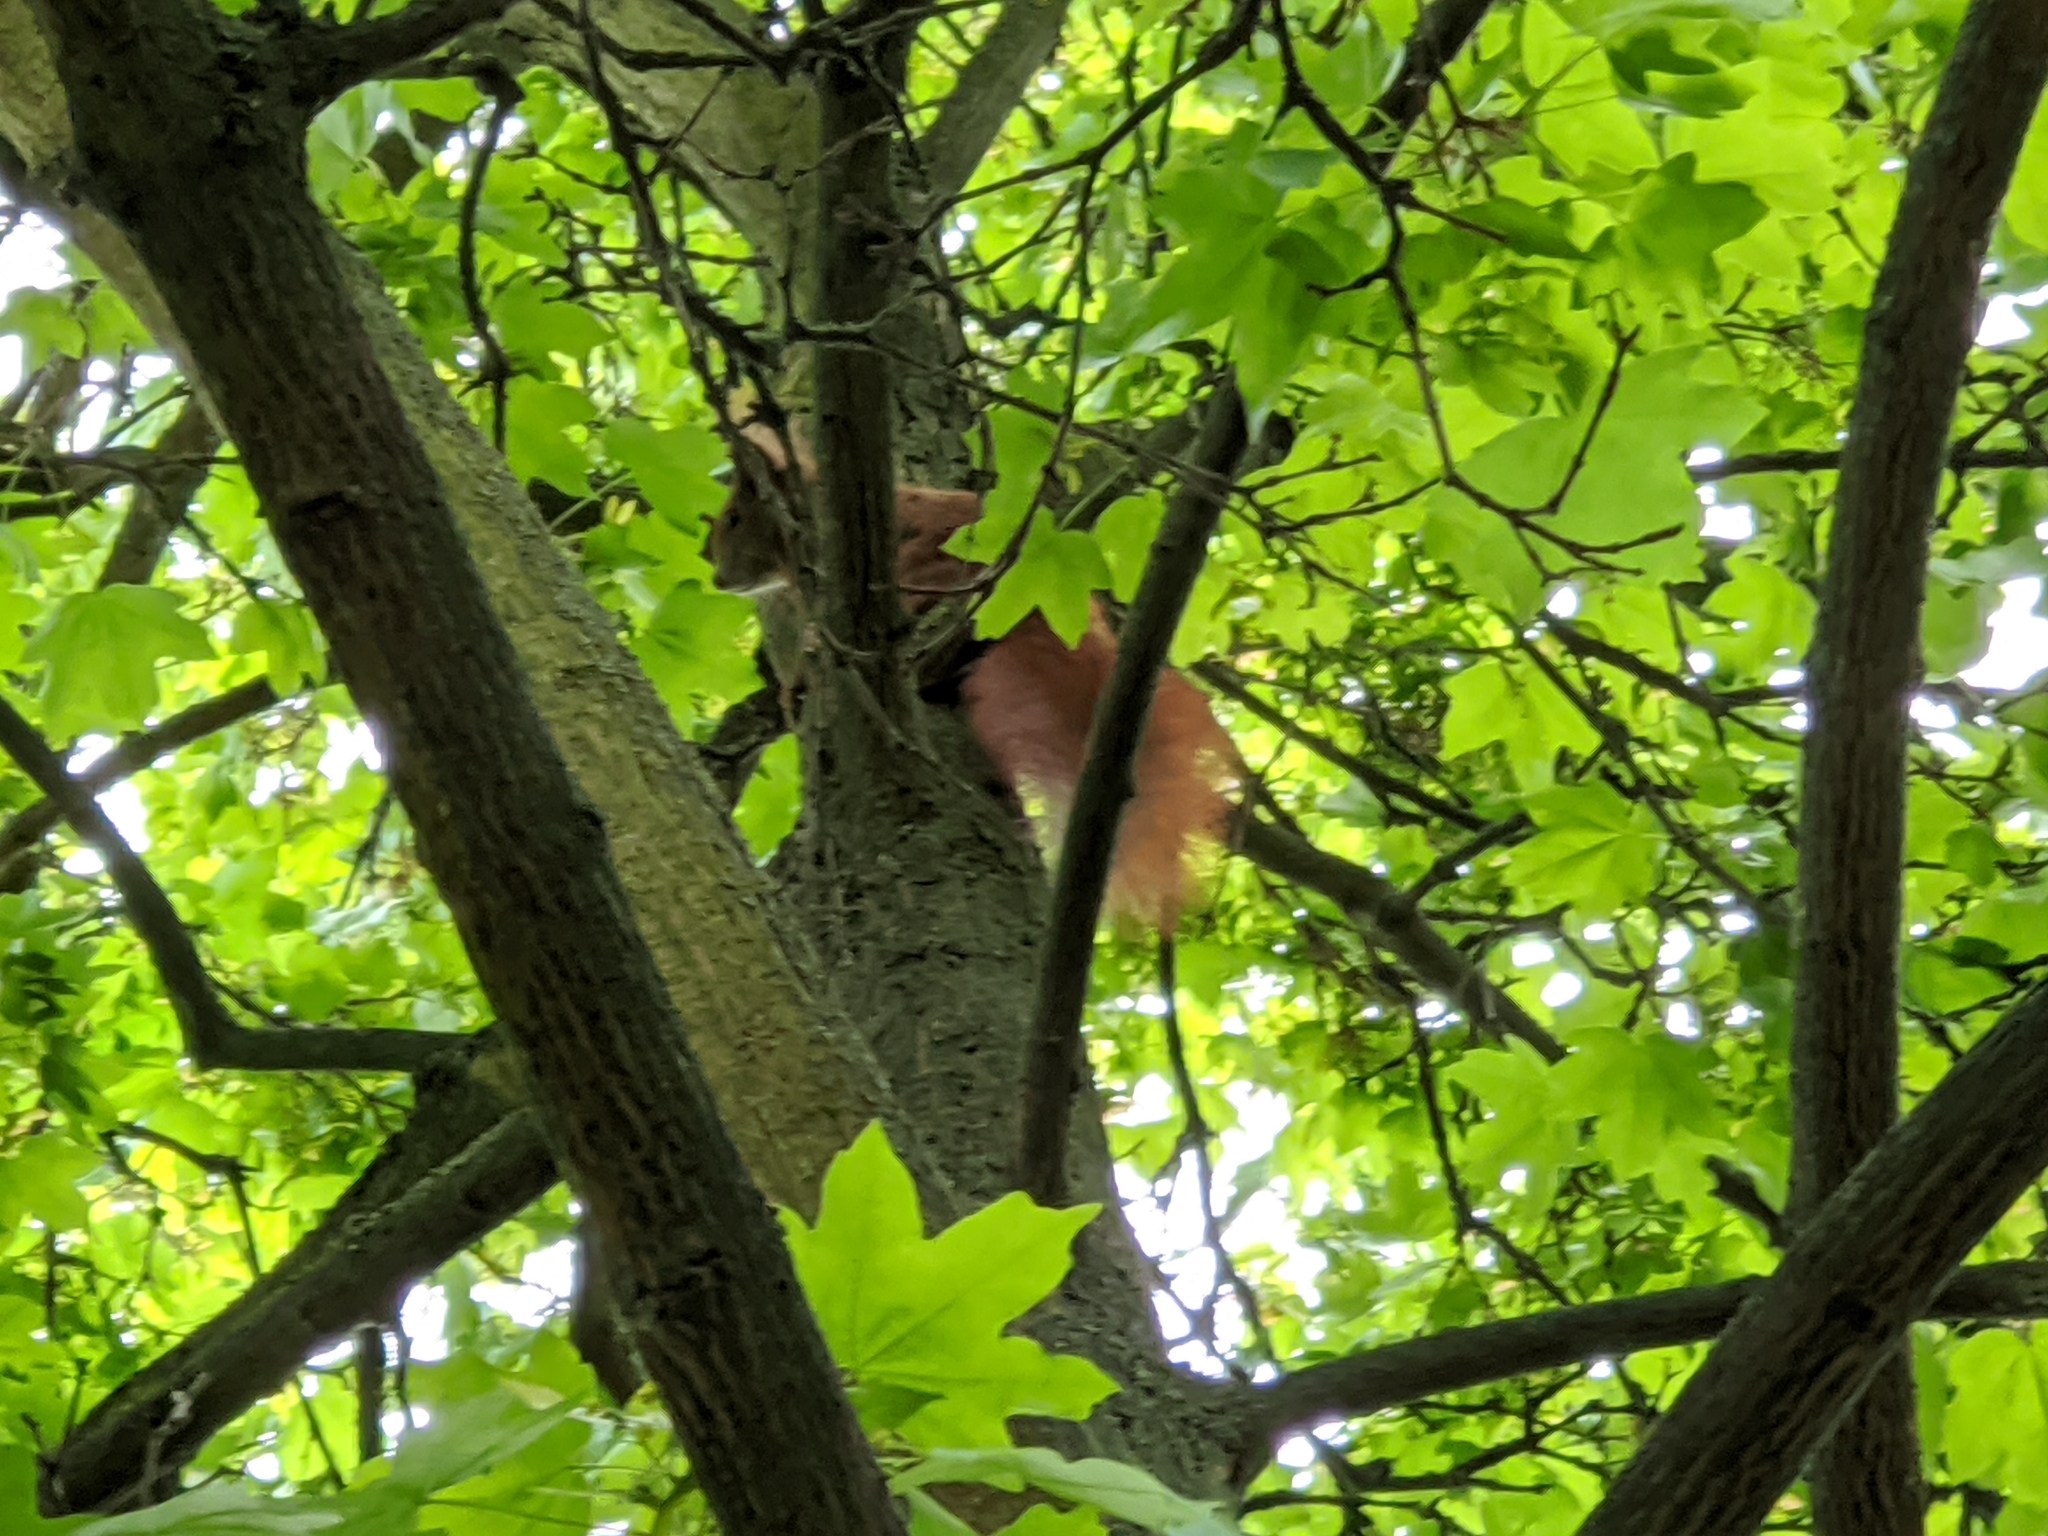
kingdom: Animalia
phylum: Chordata
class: Mammalia
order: Rodentia
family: Sciuridae
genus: Sciurus
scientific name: Sciurus vulgaris
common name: Eurasian red squirrel
